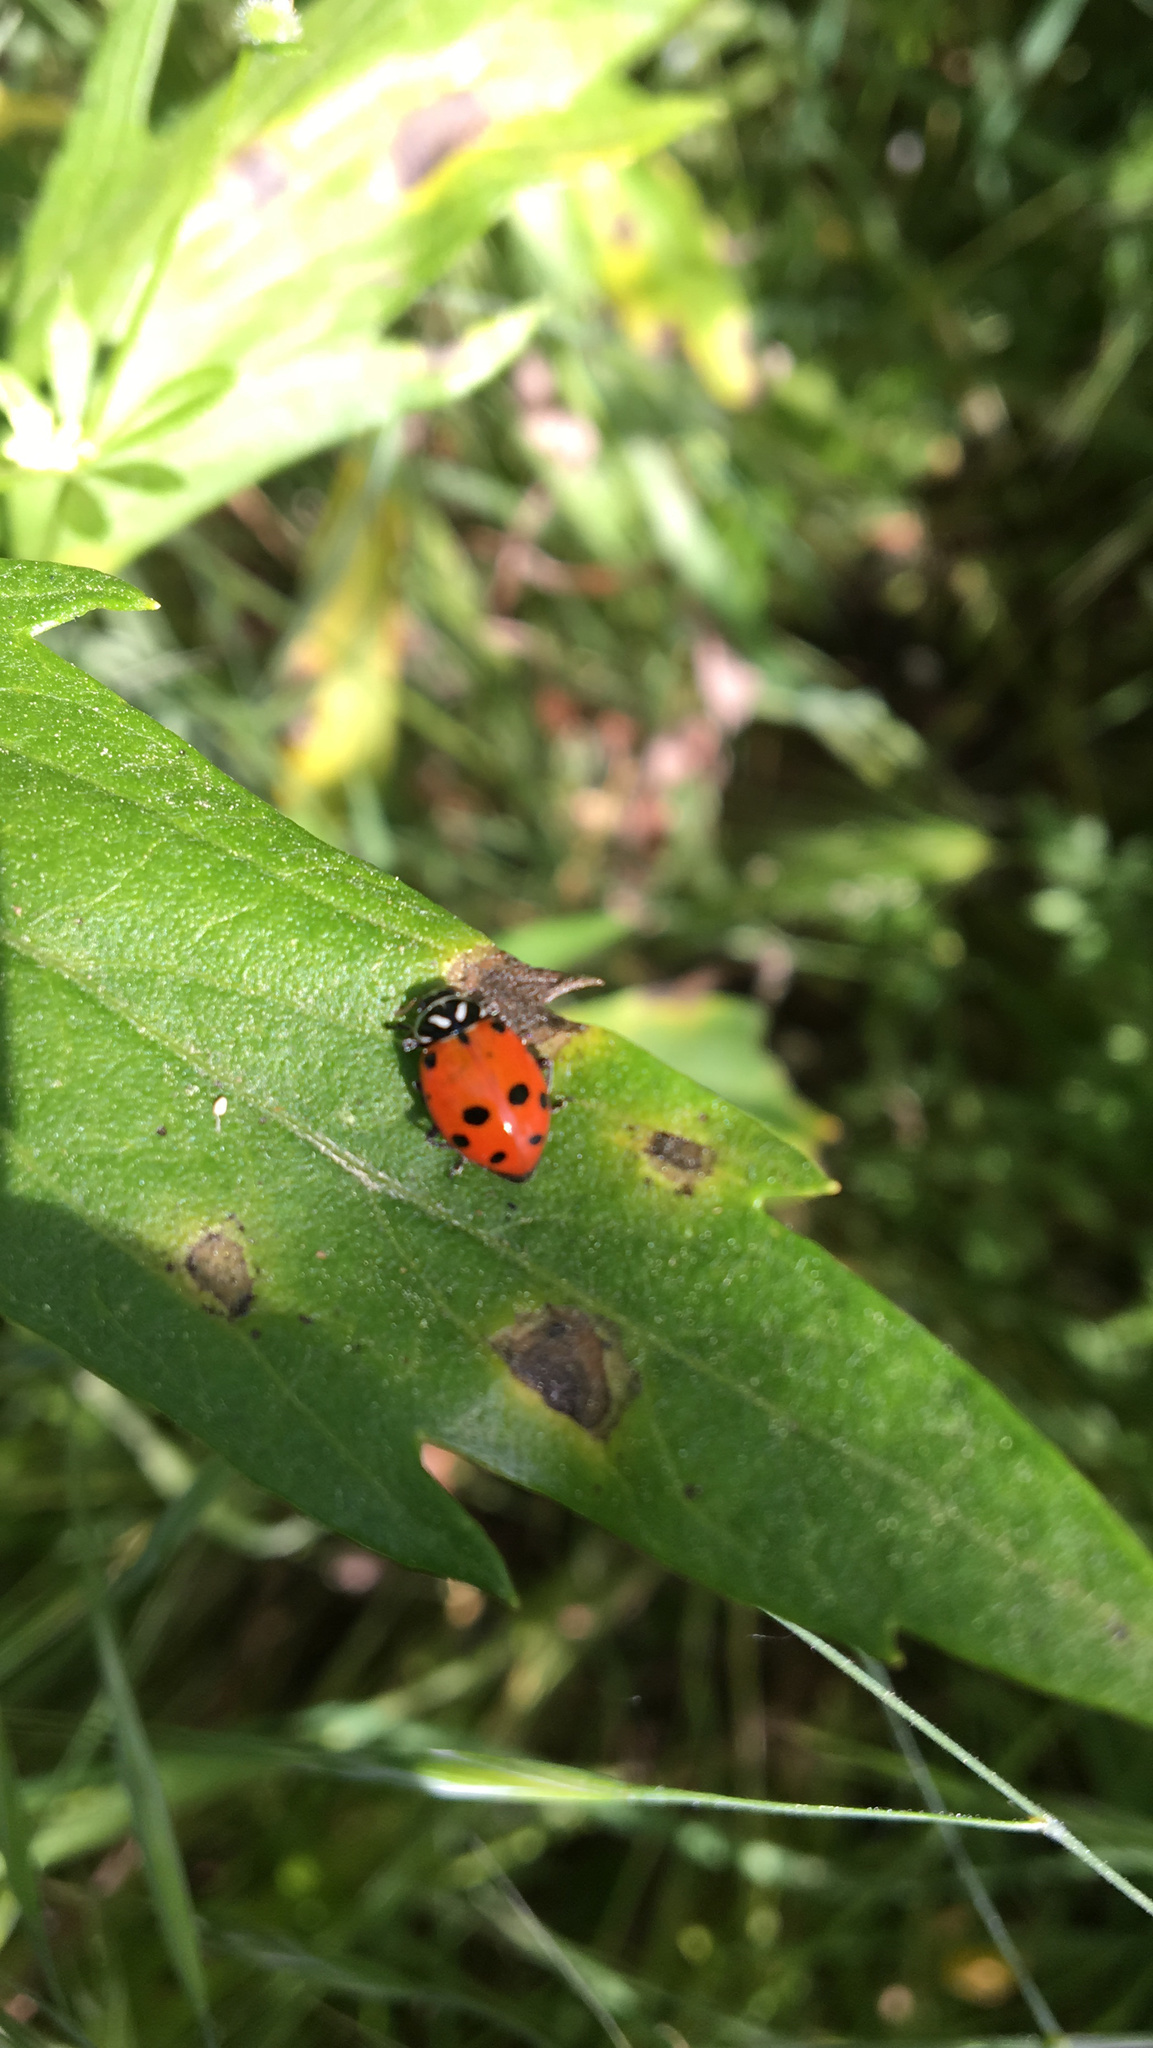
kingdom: Animalia
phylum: Arthropoda
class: Insecta
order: Coleoptera
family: Coccinellidae
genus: Hippodamia
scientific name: Hippodamia convergens
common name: Convergent lady beetle
